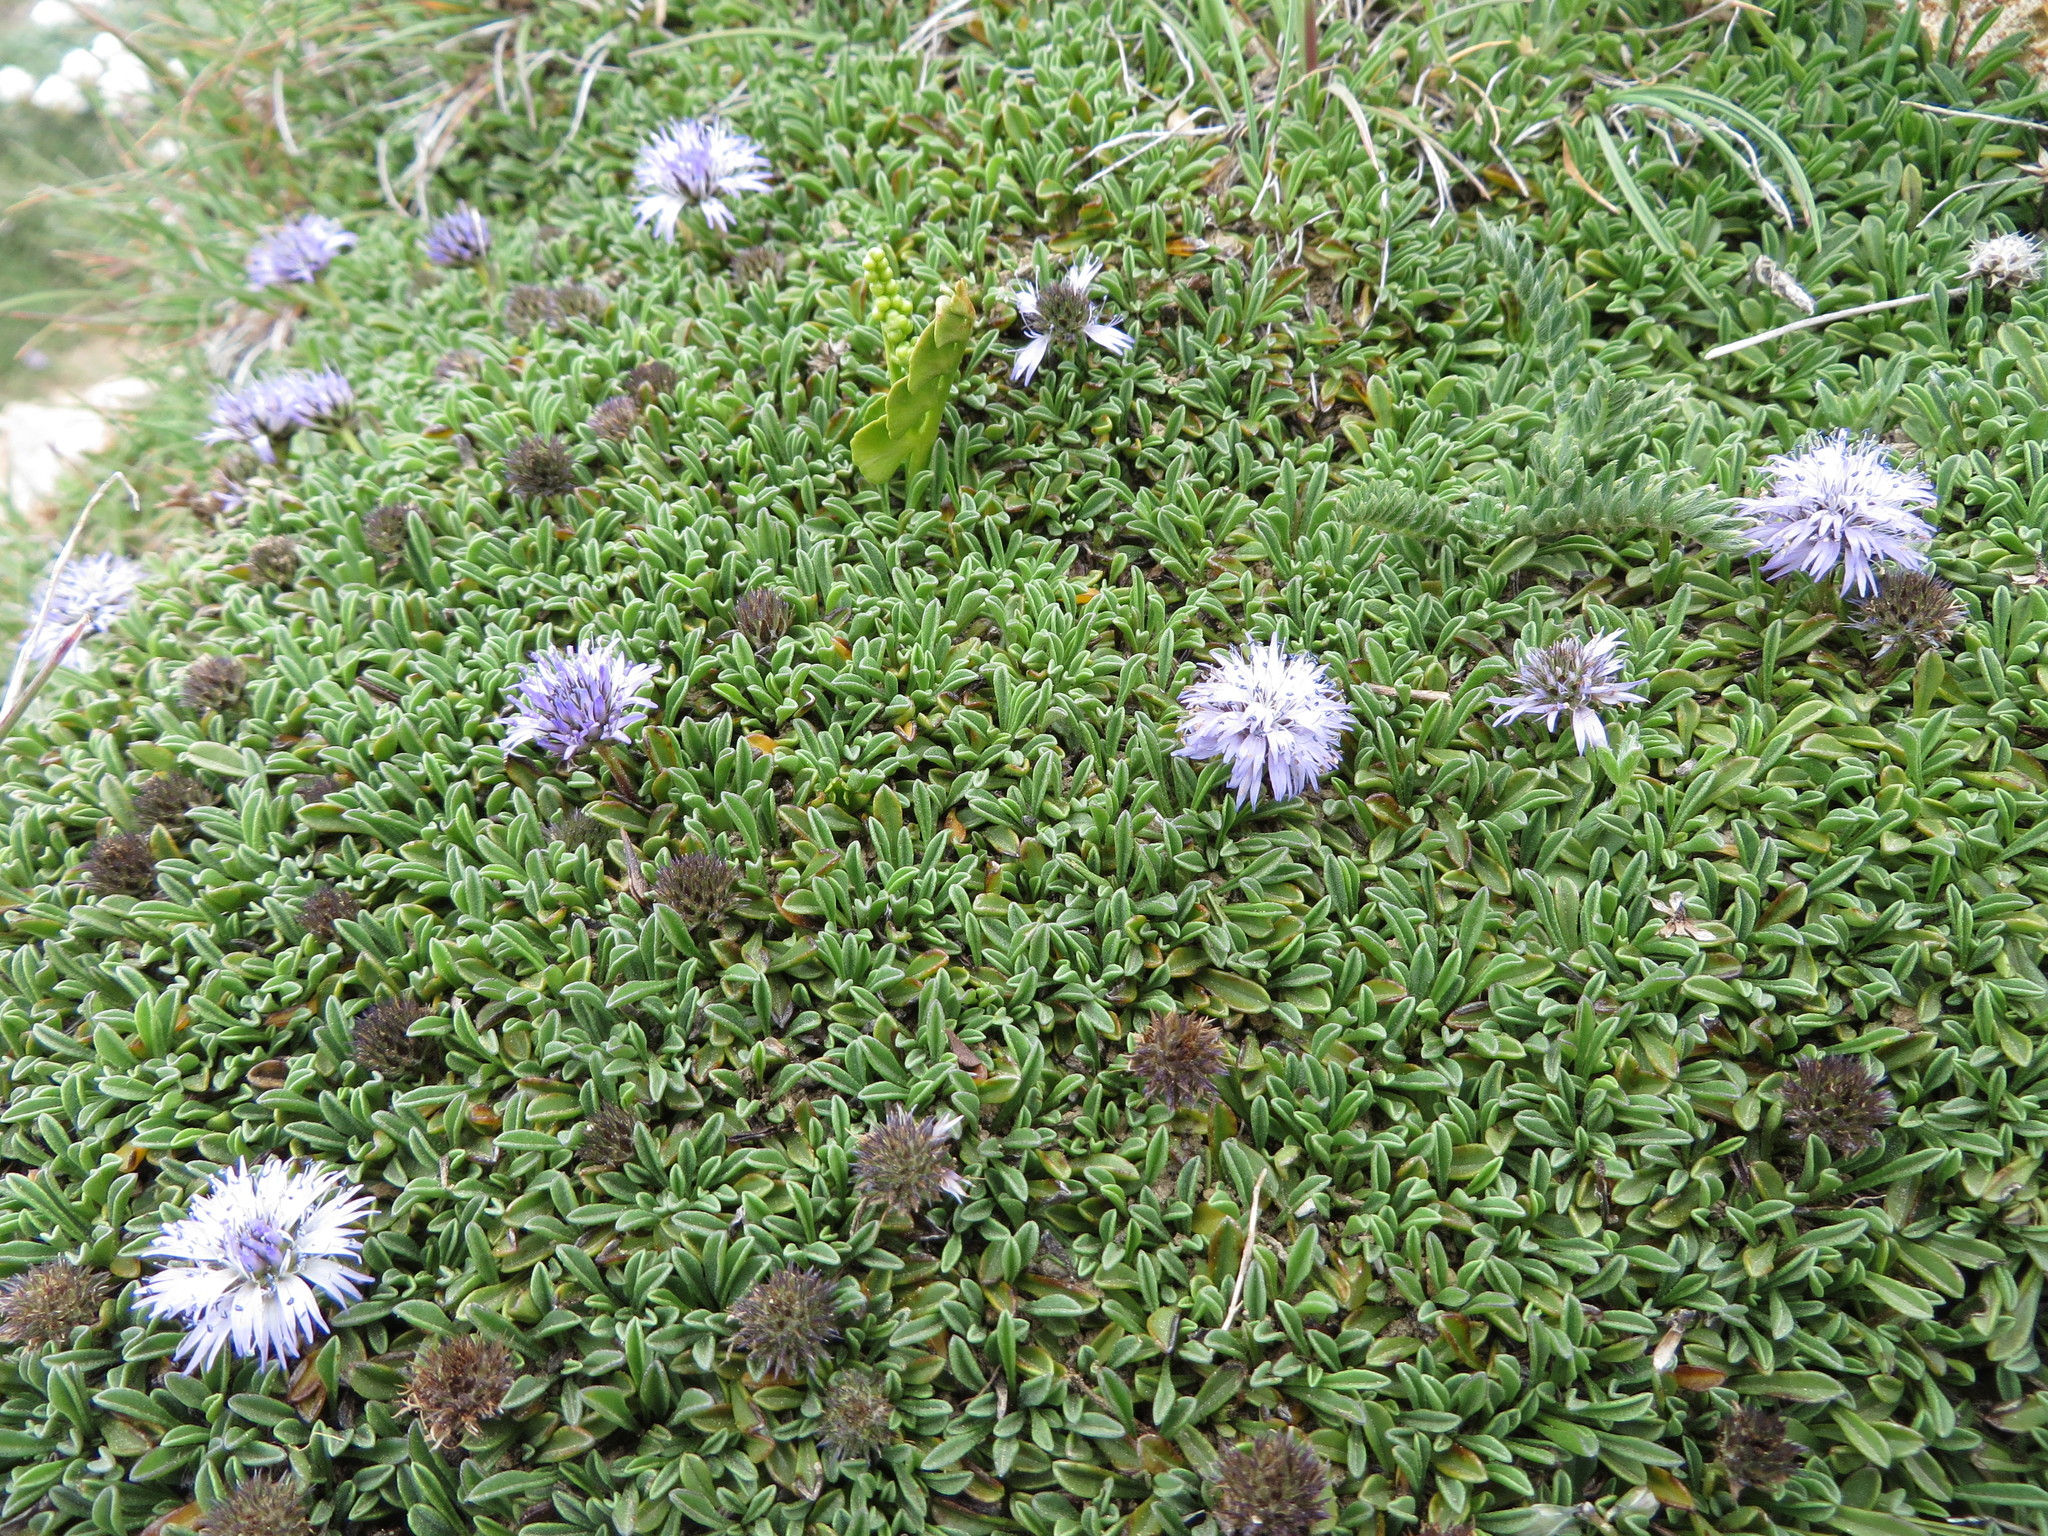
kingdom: Plantae
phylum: Tracheophyta
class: Magnoliopsida
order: Lamiales
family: Plantaginaceae
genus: Globularia
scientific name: Globularia repens
